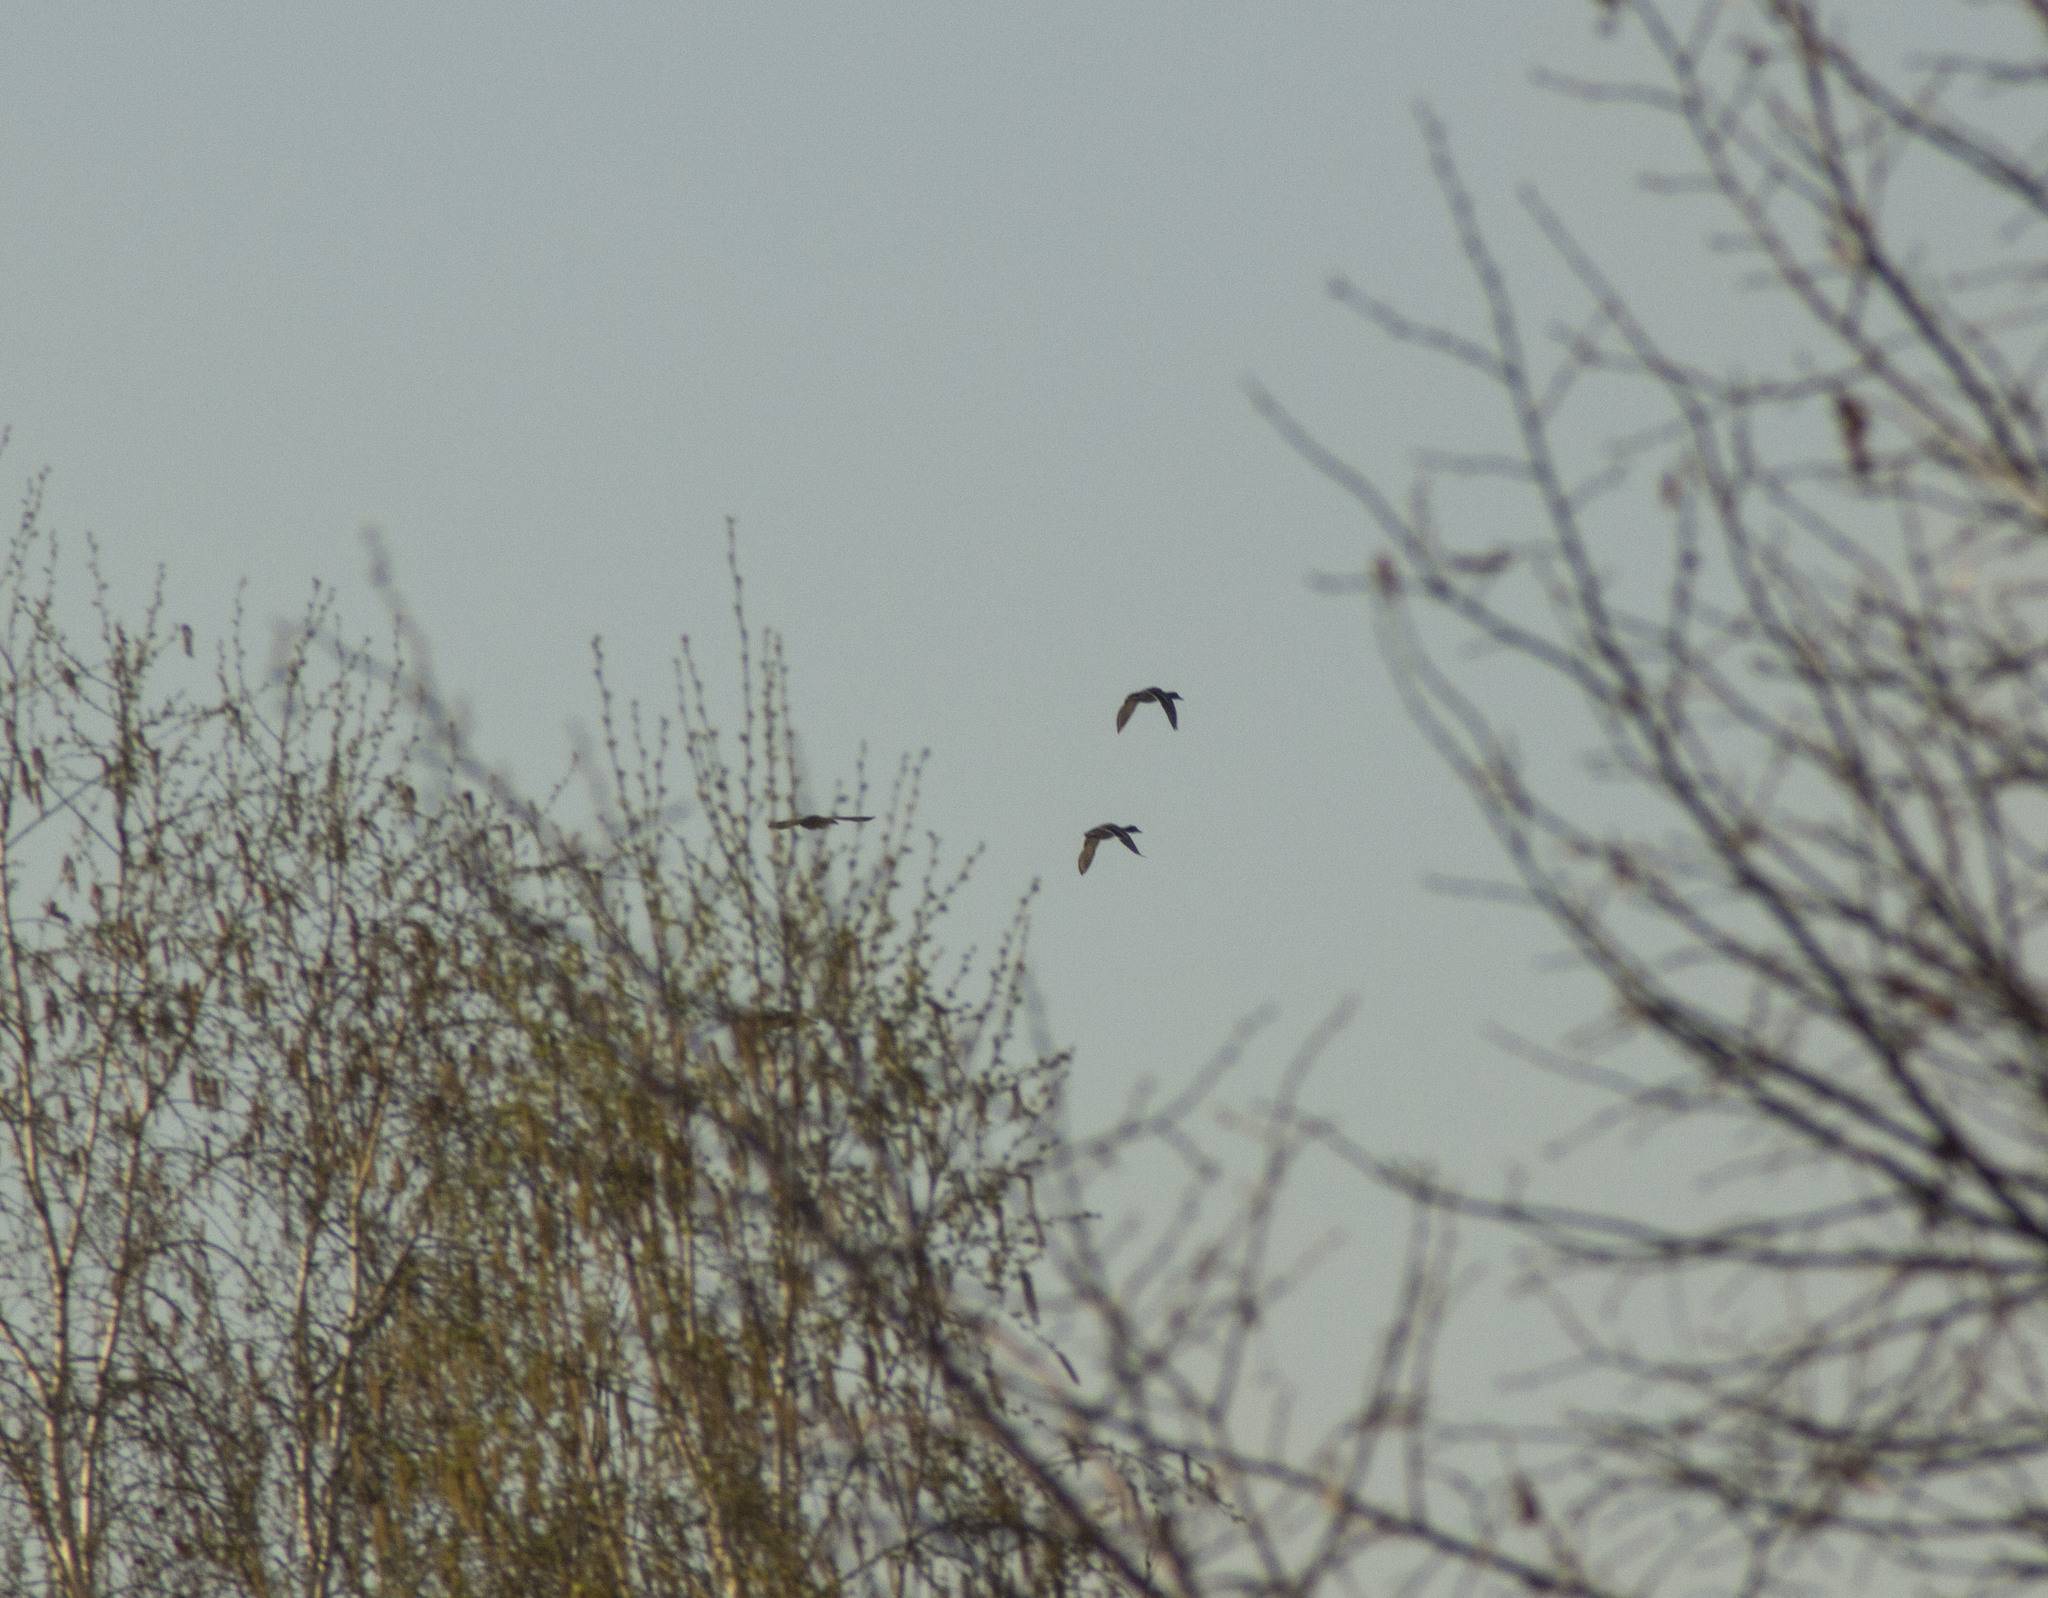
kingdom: Animalia
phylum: Chordata
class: Aves
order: Anseriformes
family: Anatidae
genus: Anas
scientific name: Anas platyrhynchos
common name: Mallard
